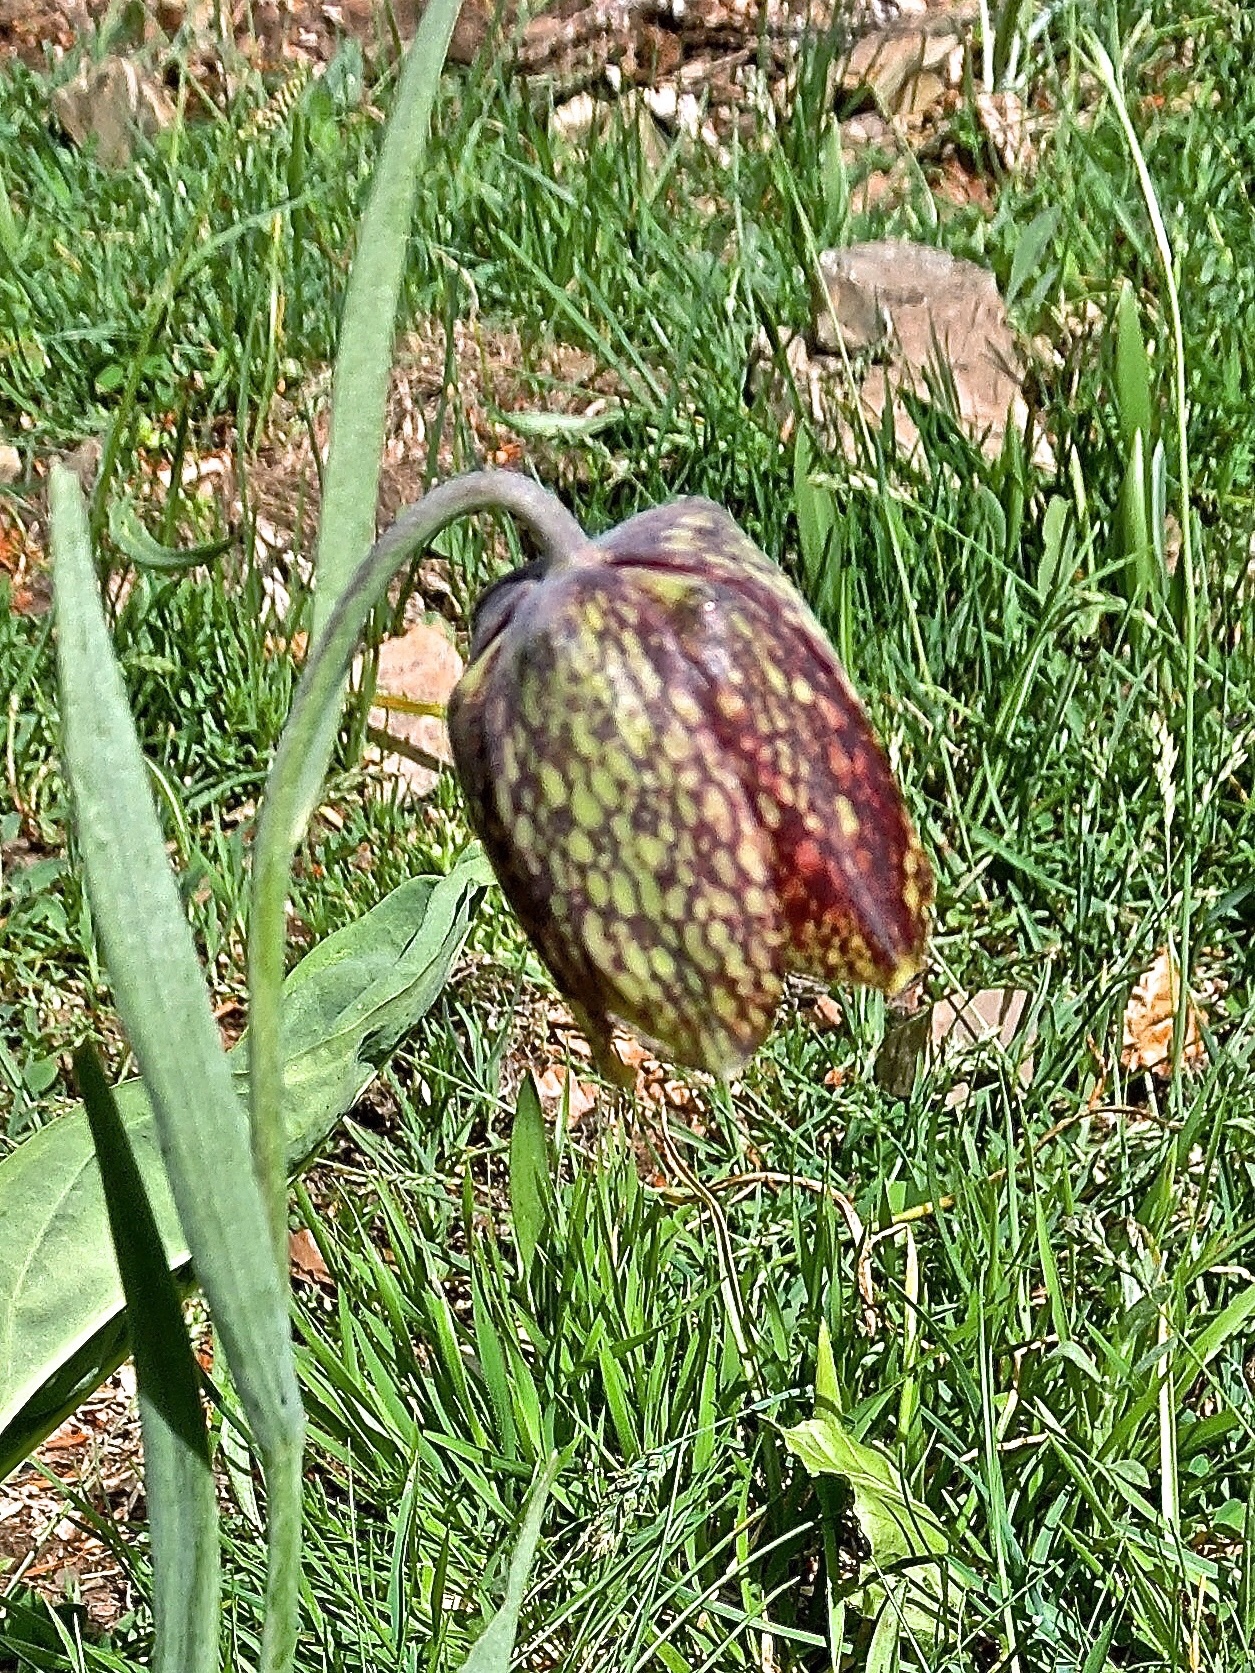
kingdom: Plantae
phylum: Tracheophyta
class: Liliopsida
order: Liliales
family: Liliaceae
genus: Fritillaria
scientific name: Fritillaria montana
